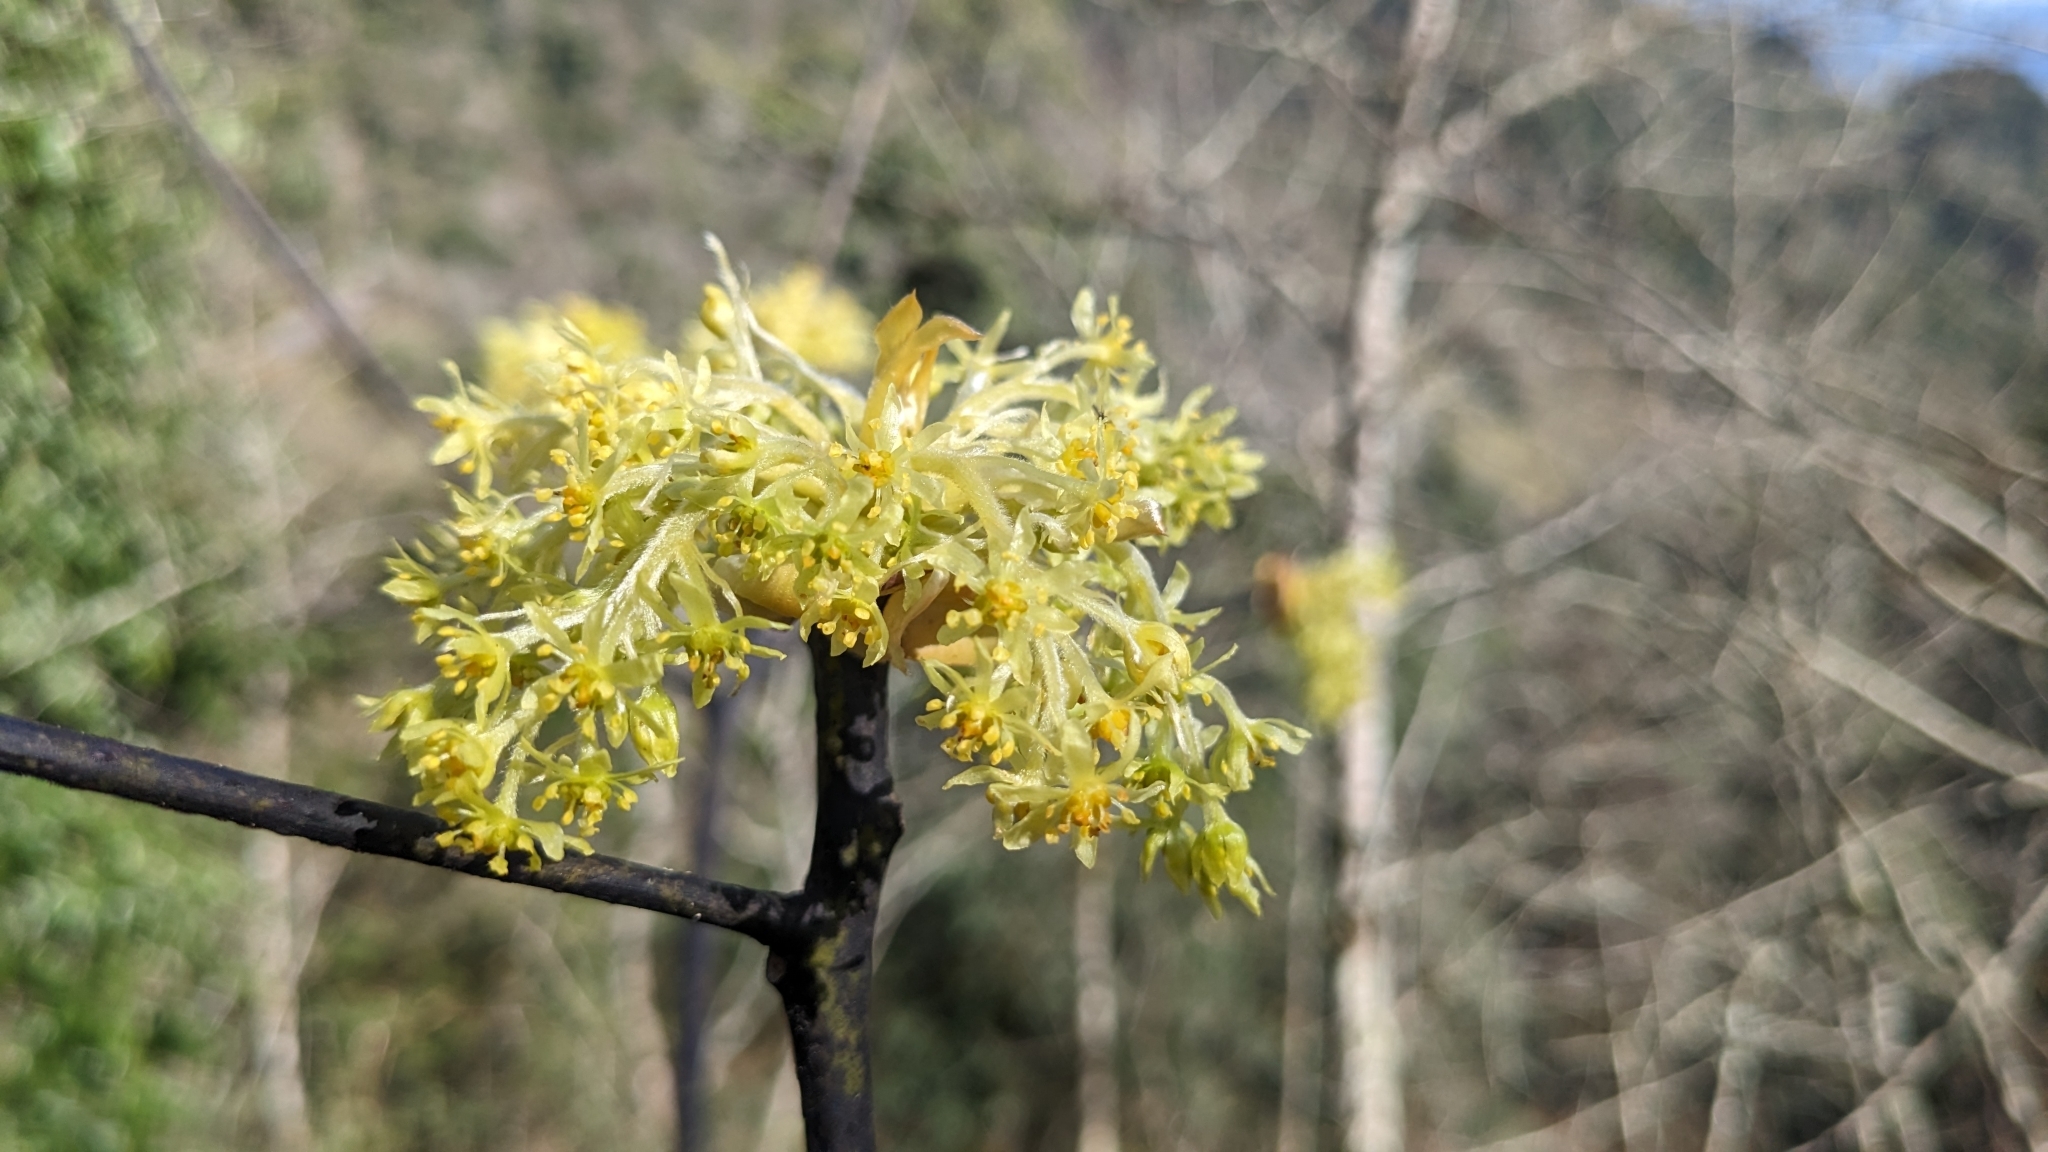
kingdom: Plantae
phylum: Tracheophyta
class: Magnoliopsida
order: Laurales
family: Lauraceae
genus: Sassafras
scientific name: Sassafras randaiense
